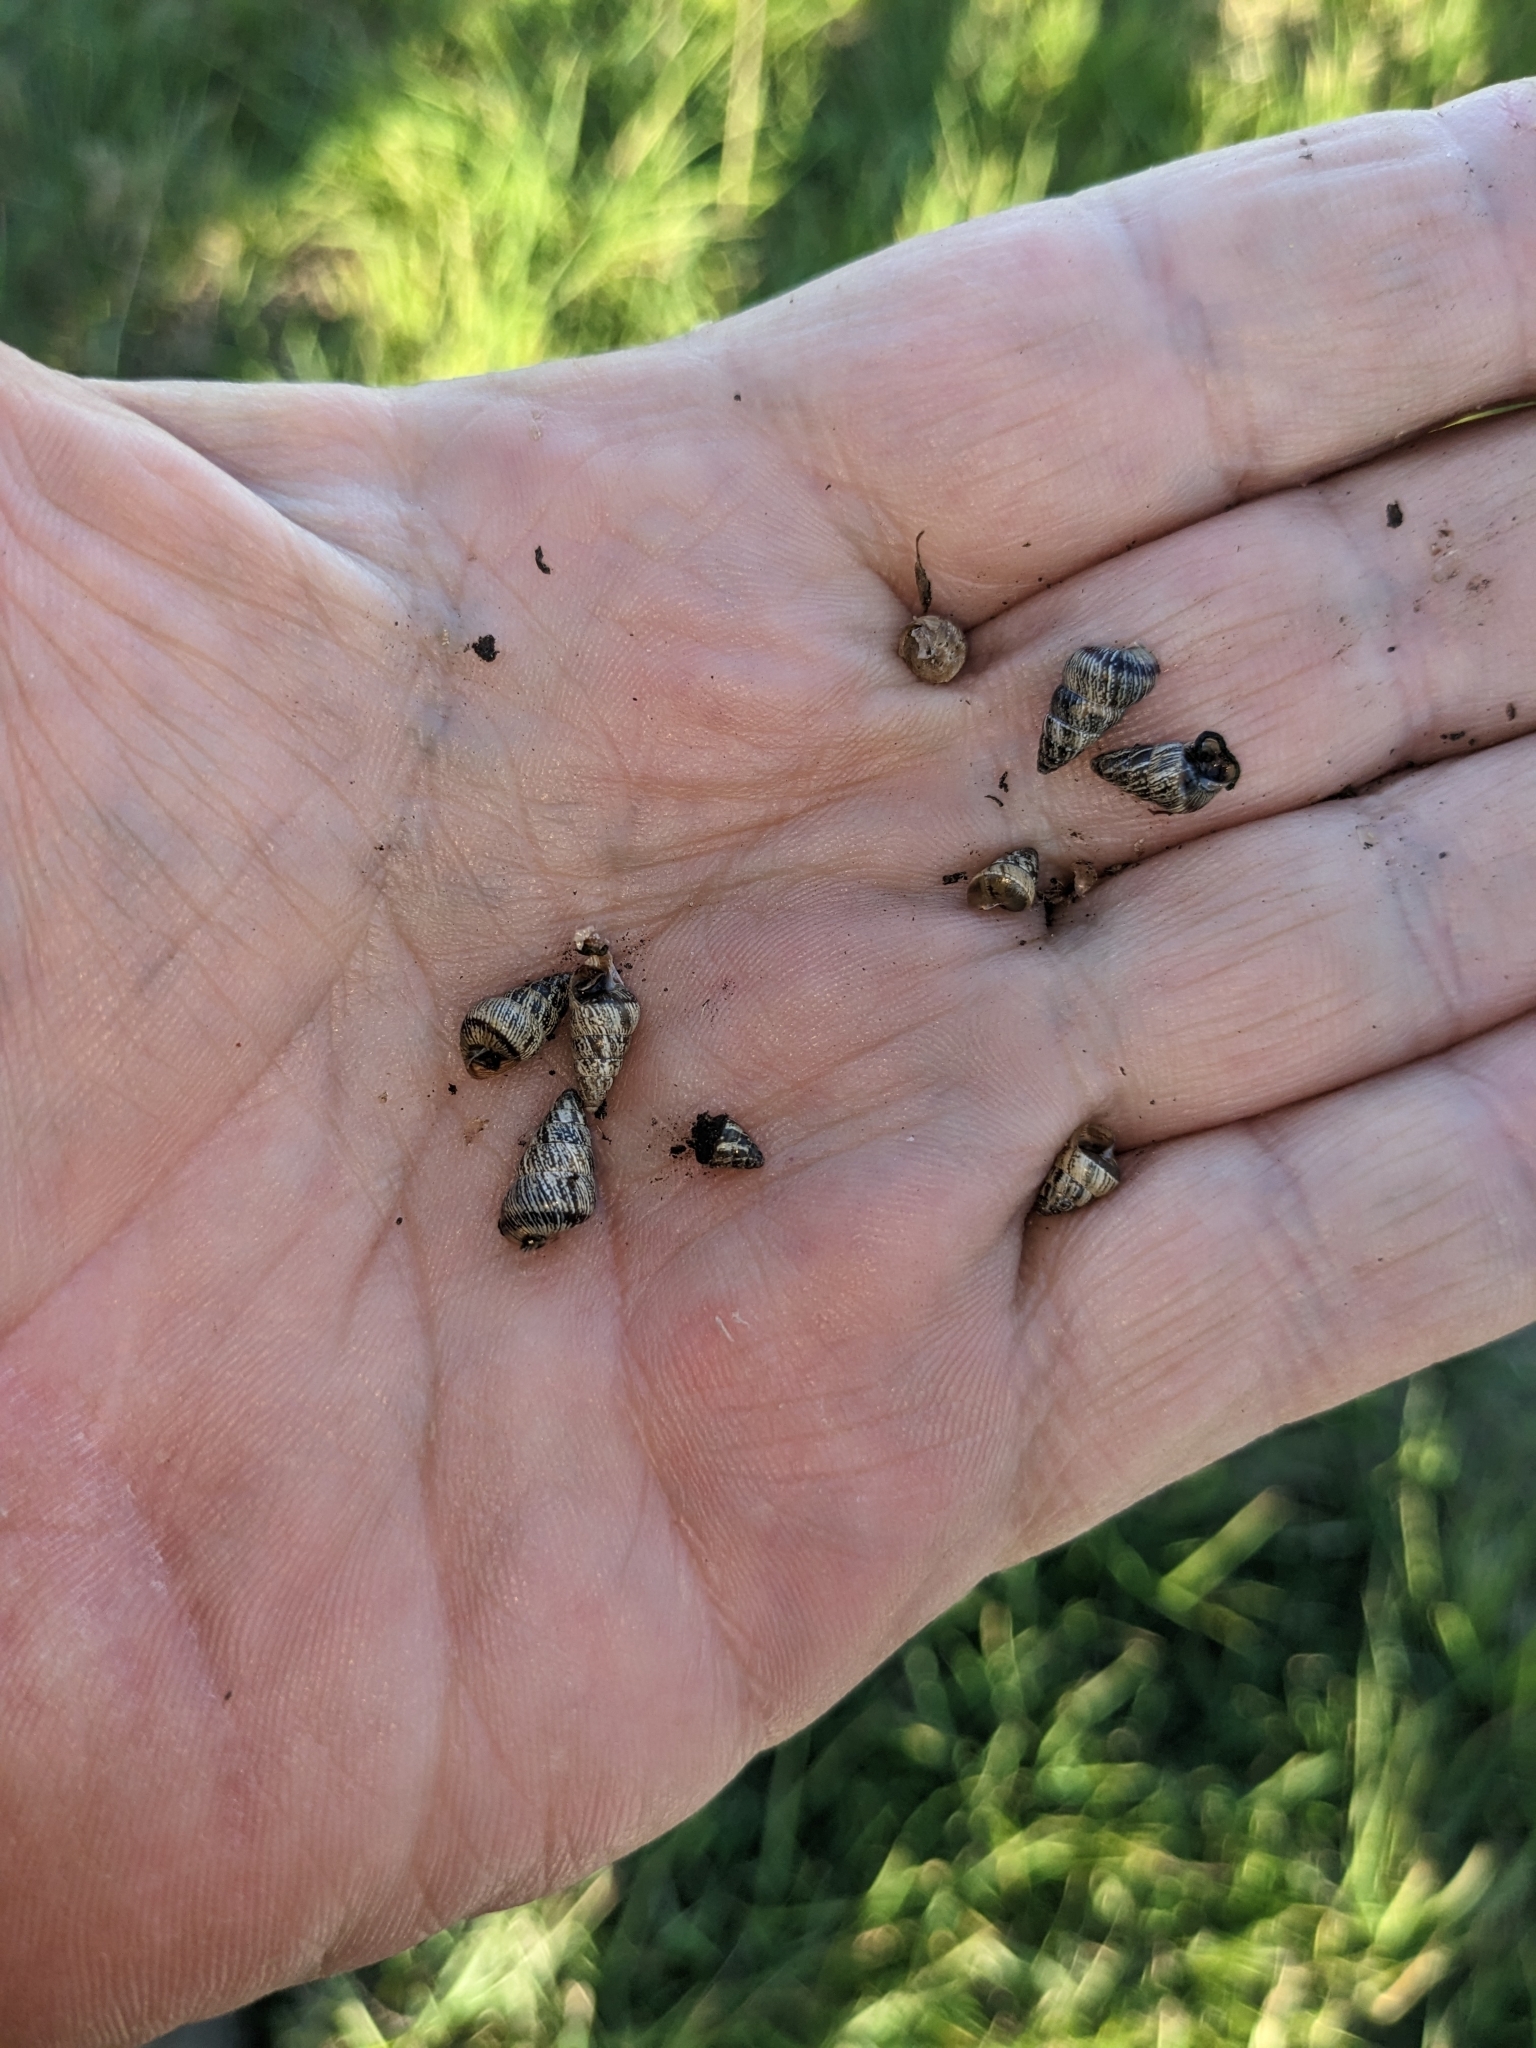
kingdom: Animalia
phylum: Mollusca
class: Gastropoda
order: Stylommatophora
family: Geomitridae
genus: Cochlicella
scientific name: Cochlicella barbara
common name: Potbellied helicellid
